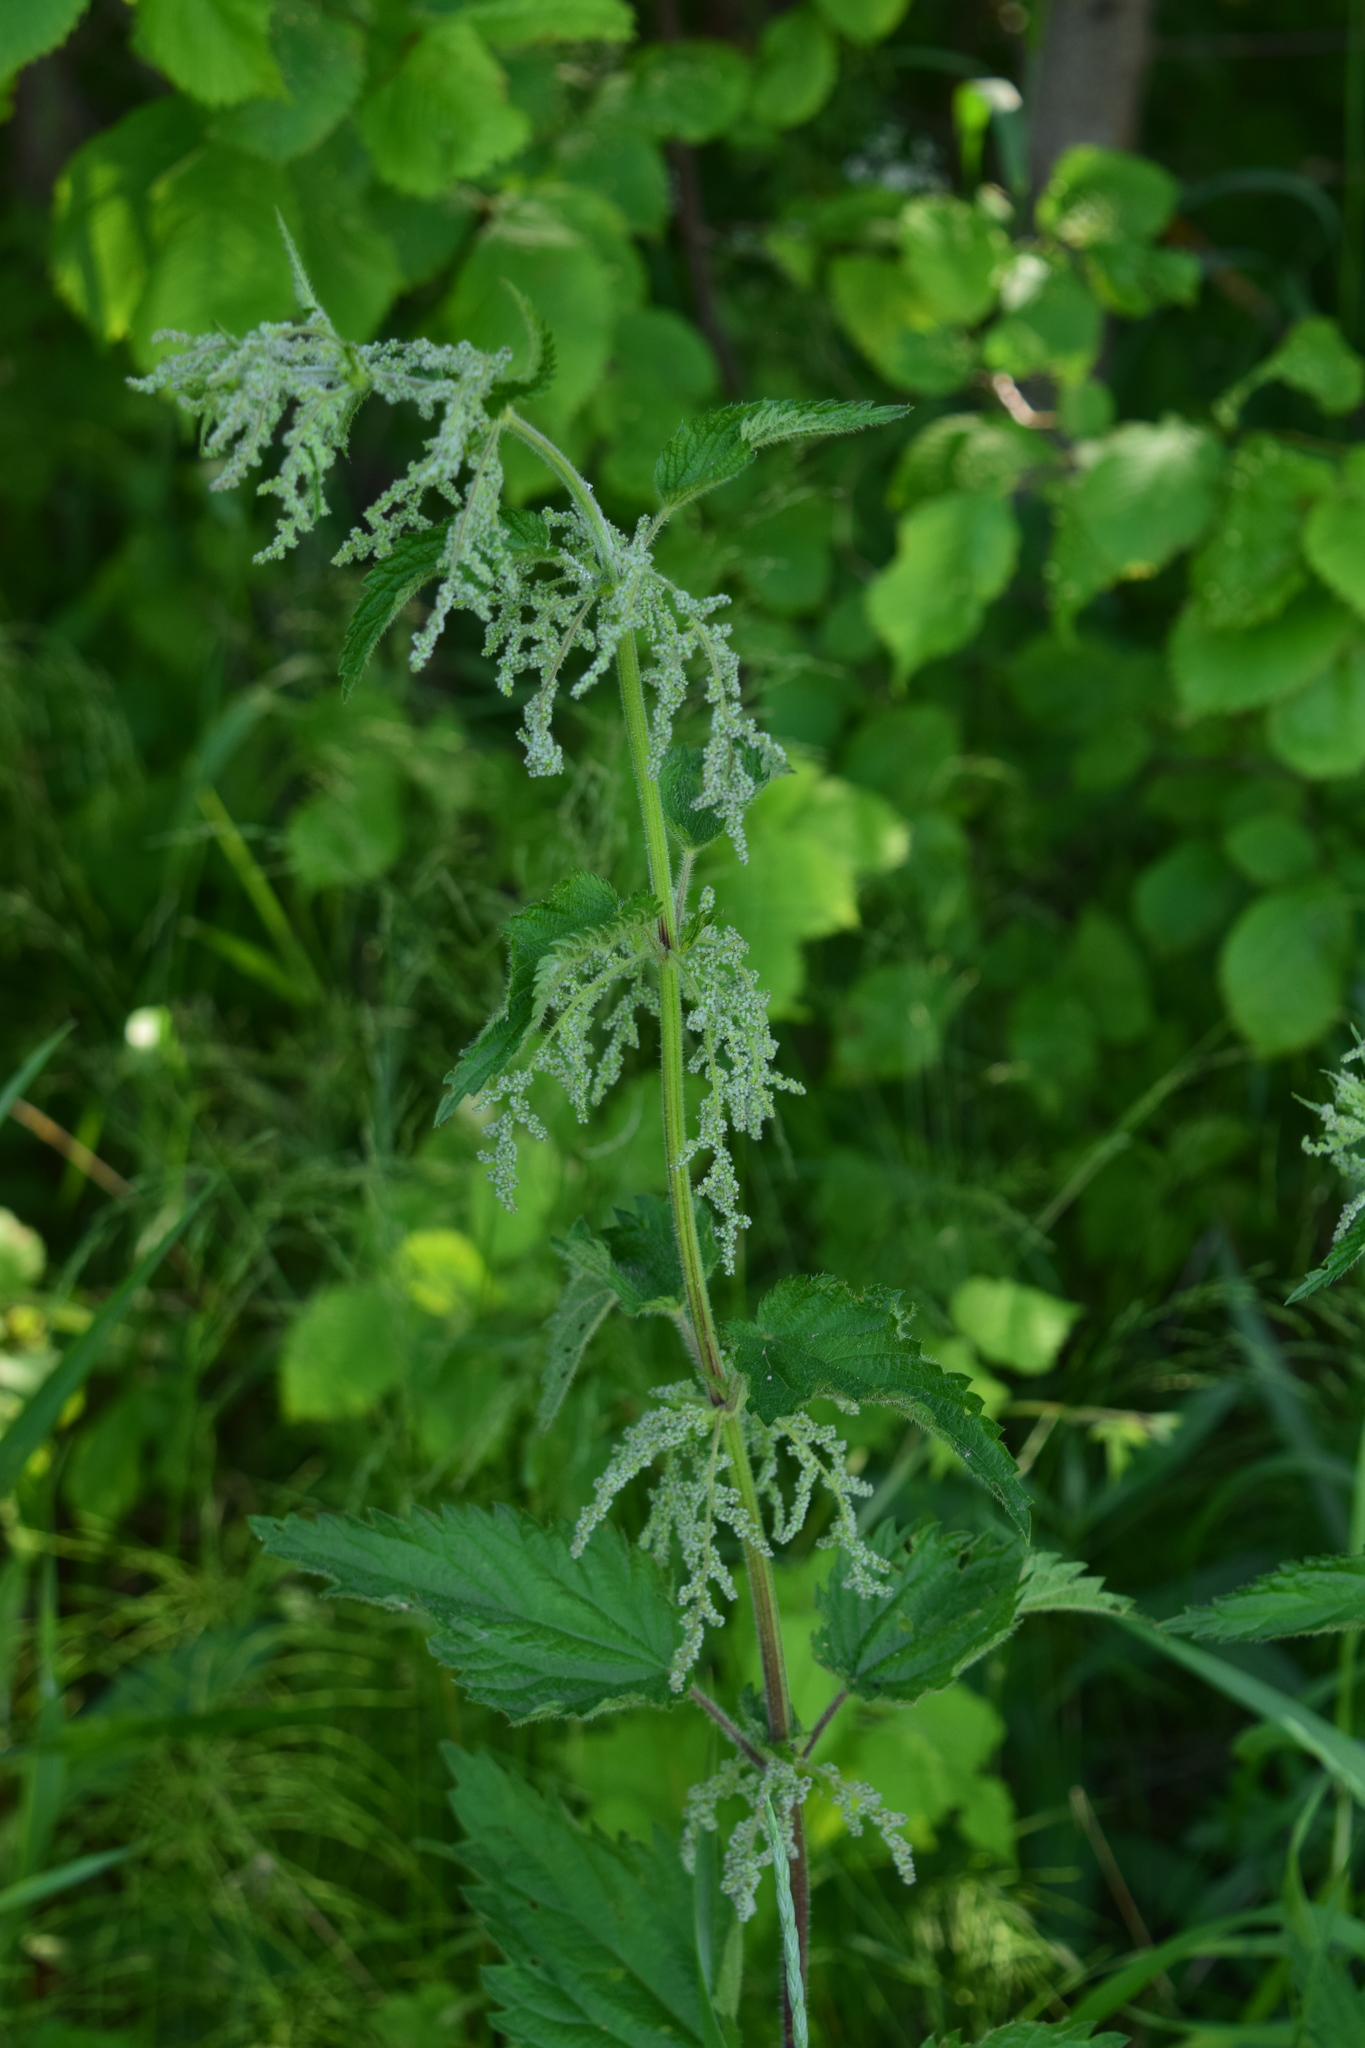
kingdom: Plantae
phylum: Tracheophyta
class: Magnoliopsida
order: Rosales
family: Urticaceae
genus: Urtica
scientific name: Urtica dioica
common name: Common nettle
